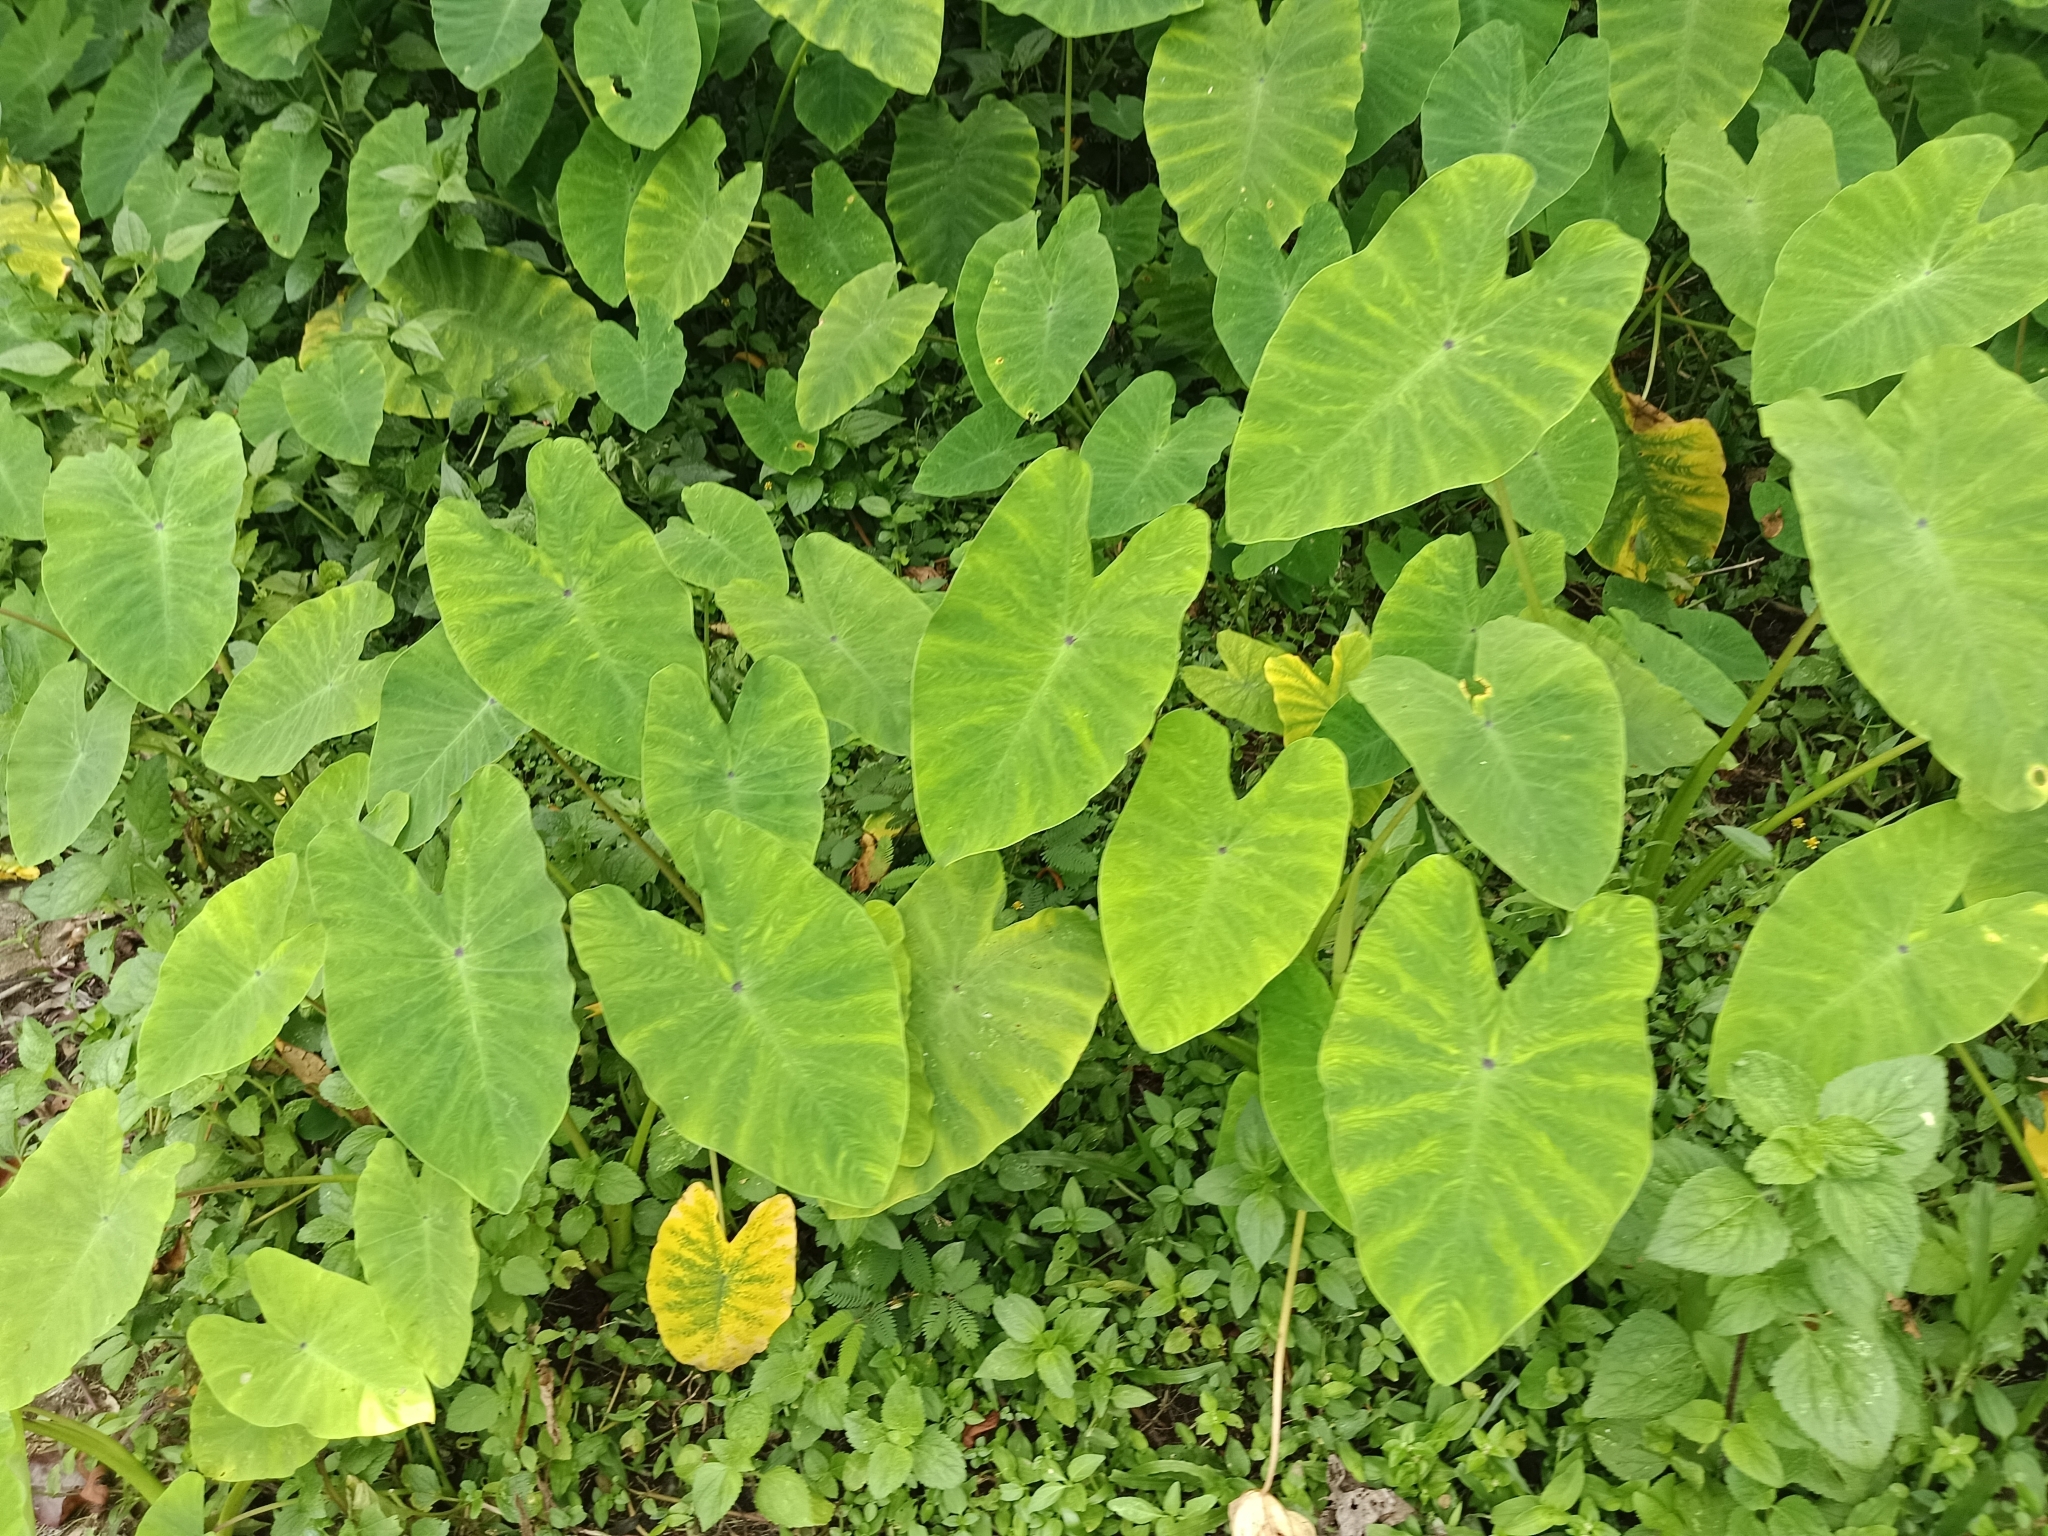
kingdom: Plantae
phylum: Tracheophyta
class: Liliopsida
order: Alismatales
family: Araceae
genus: Colocasia
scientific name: Colocasia esculenta
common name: Taro
